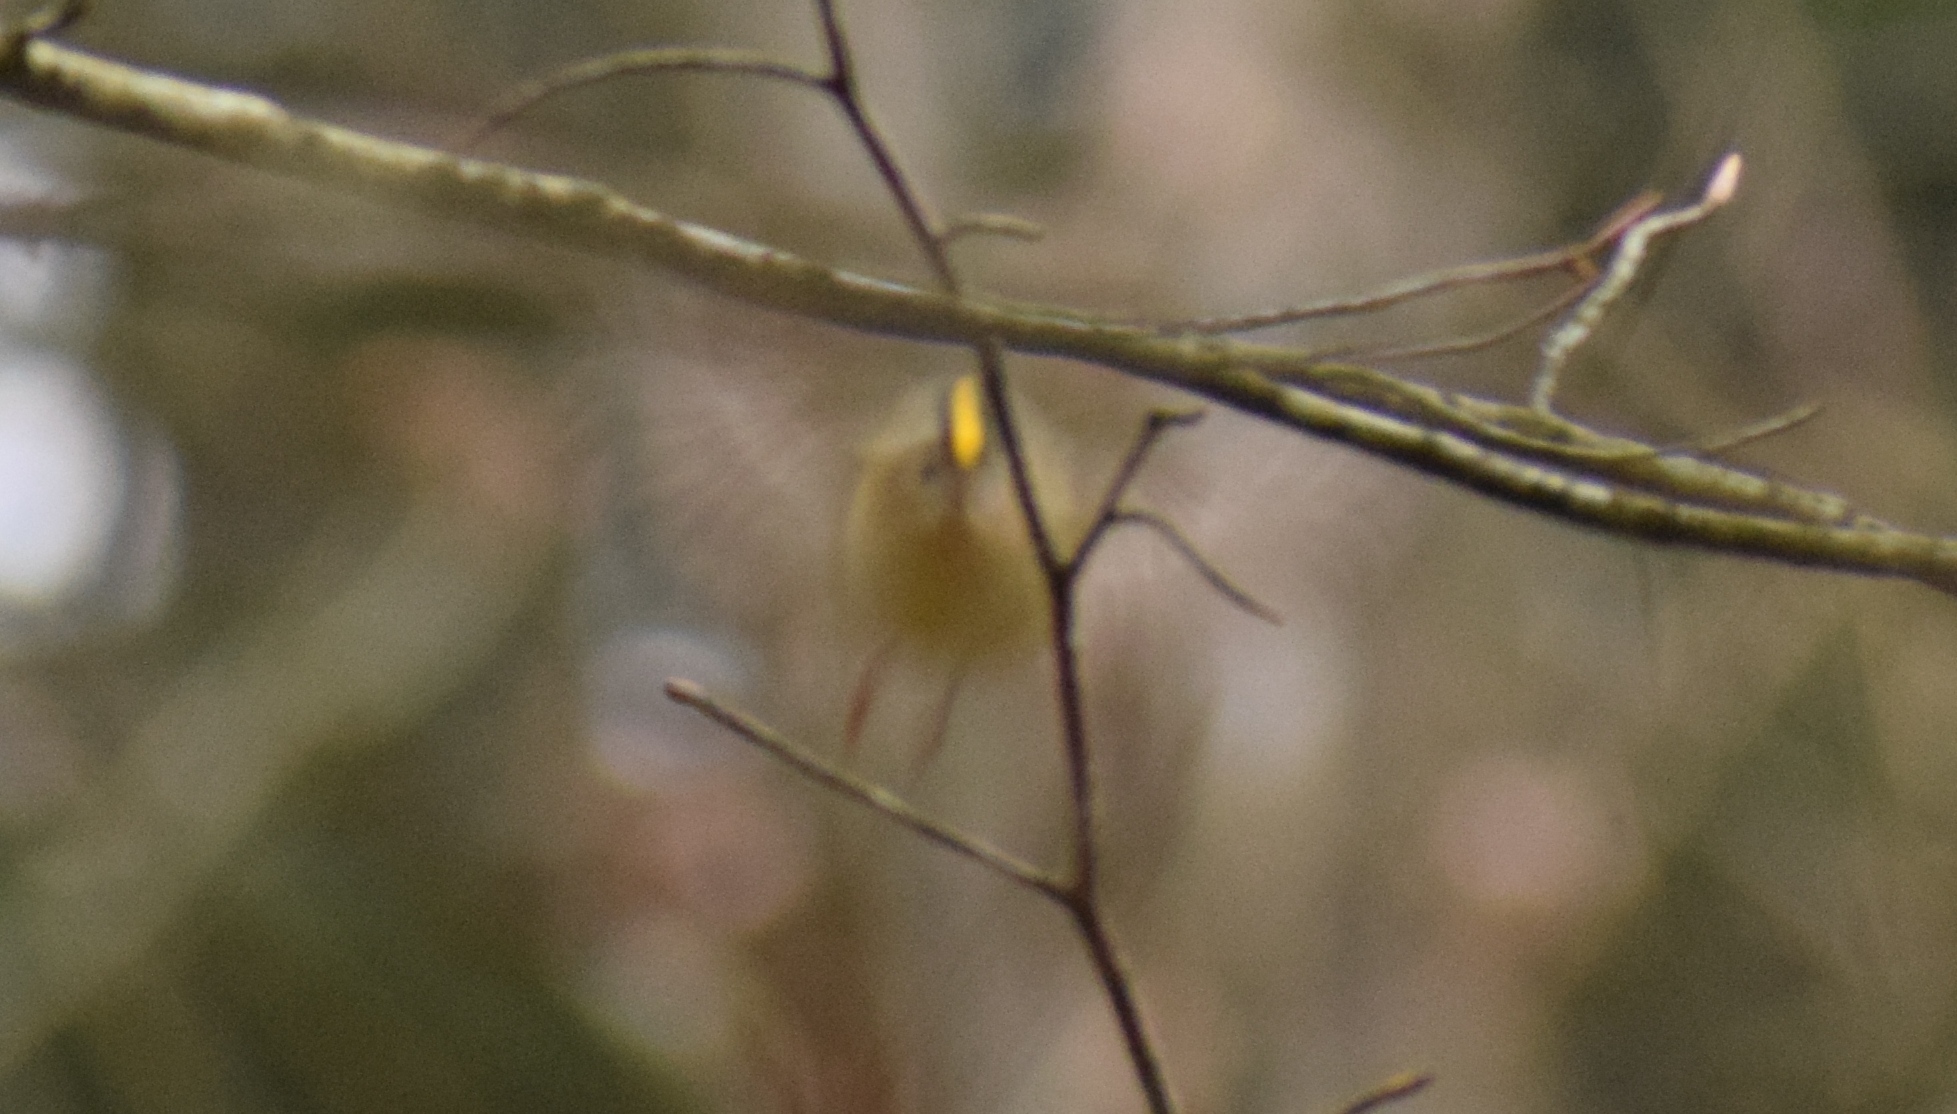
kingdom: Animalia
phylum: Chordata
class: Aves
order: Passeriformes
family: Regulidae
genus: Regulus
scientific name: Regulus regulus
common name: Goldcrest
